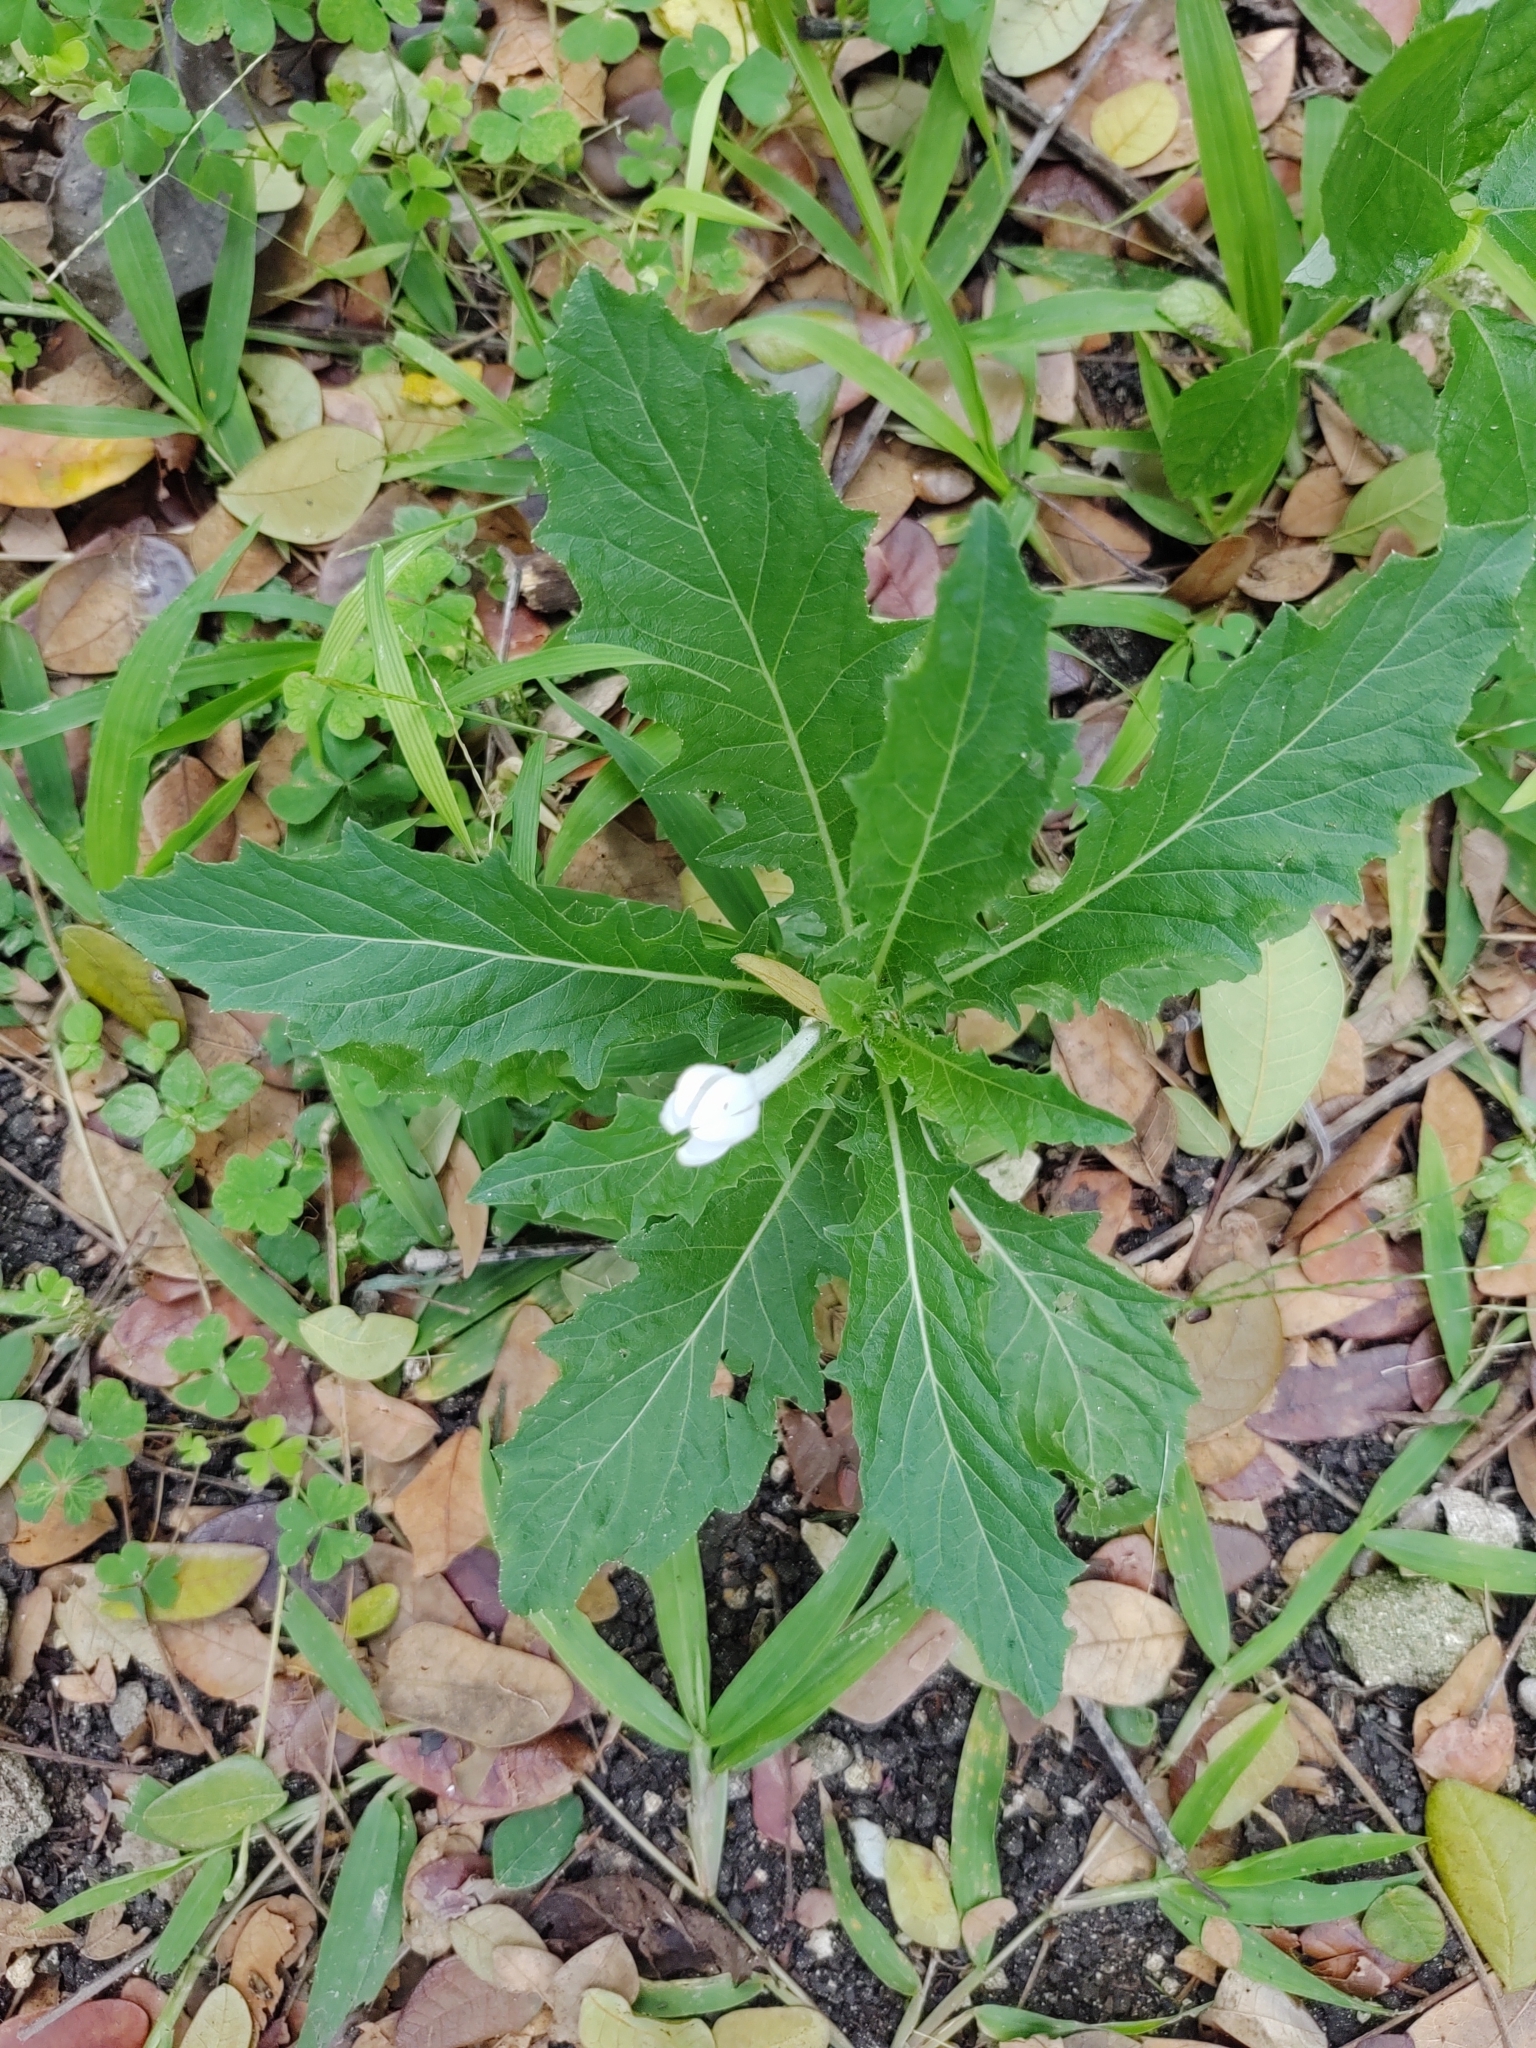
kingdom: Plantae
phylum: Tracheophyta
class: Magnoliopsida
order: Asterales
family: Campanulaceae
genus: Hippobroma
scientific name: Hippobroma longiflora
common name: Madamfate
